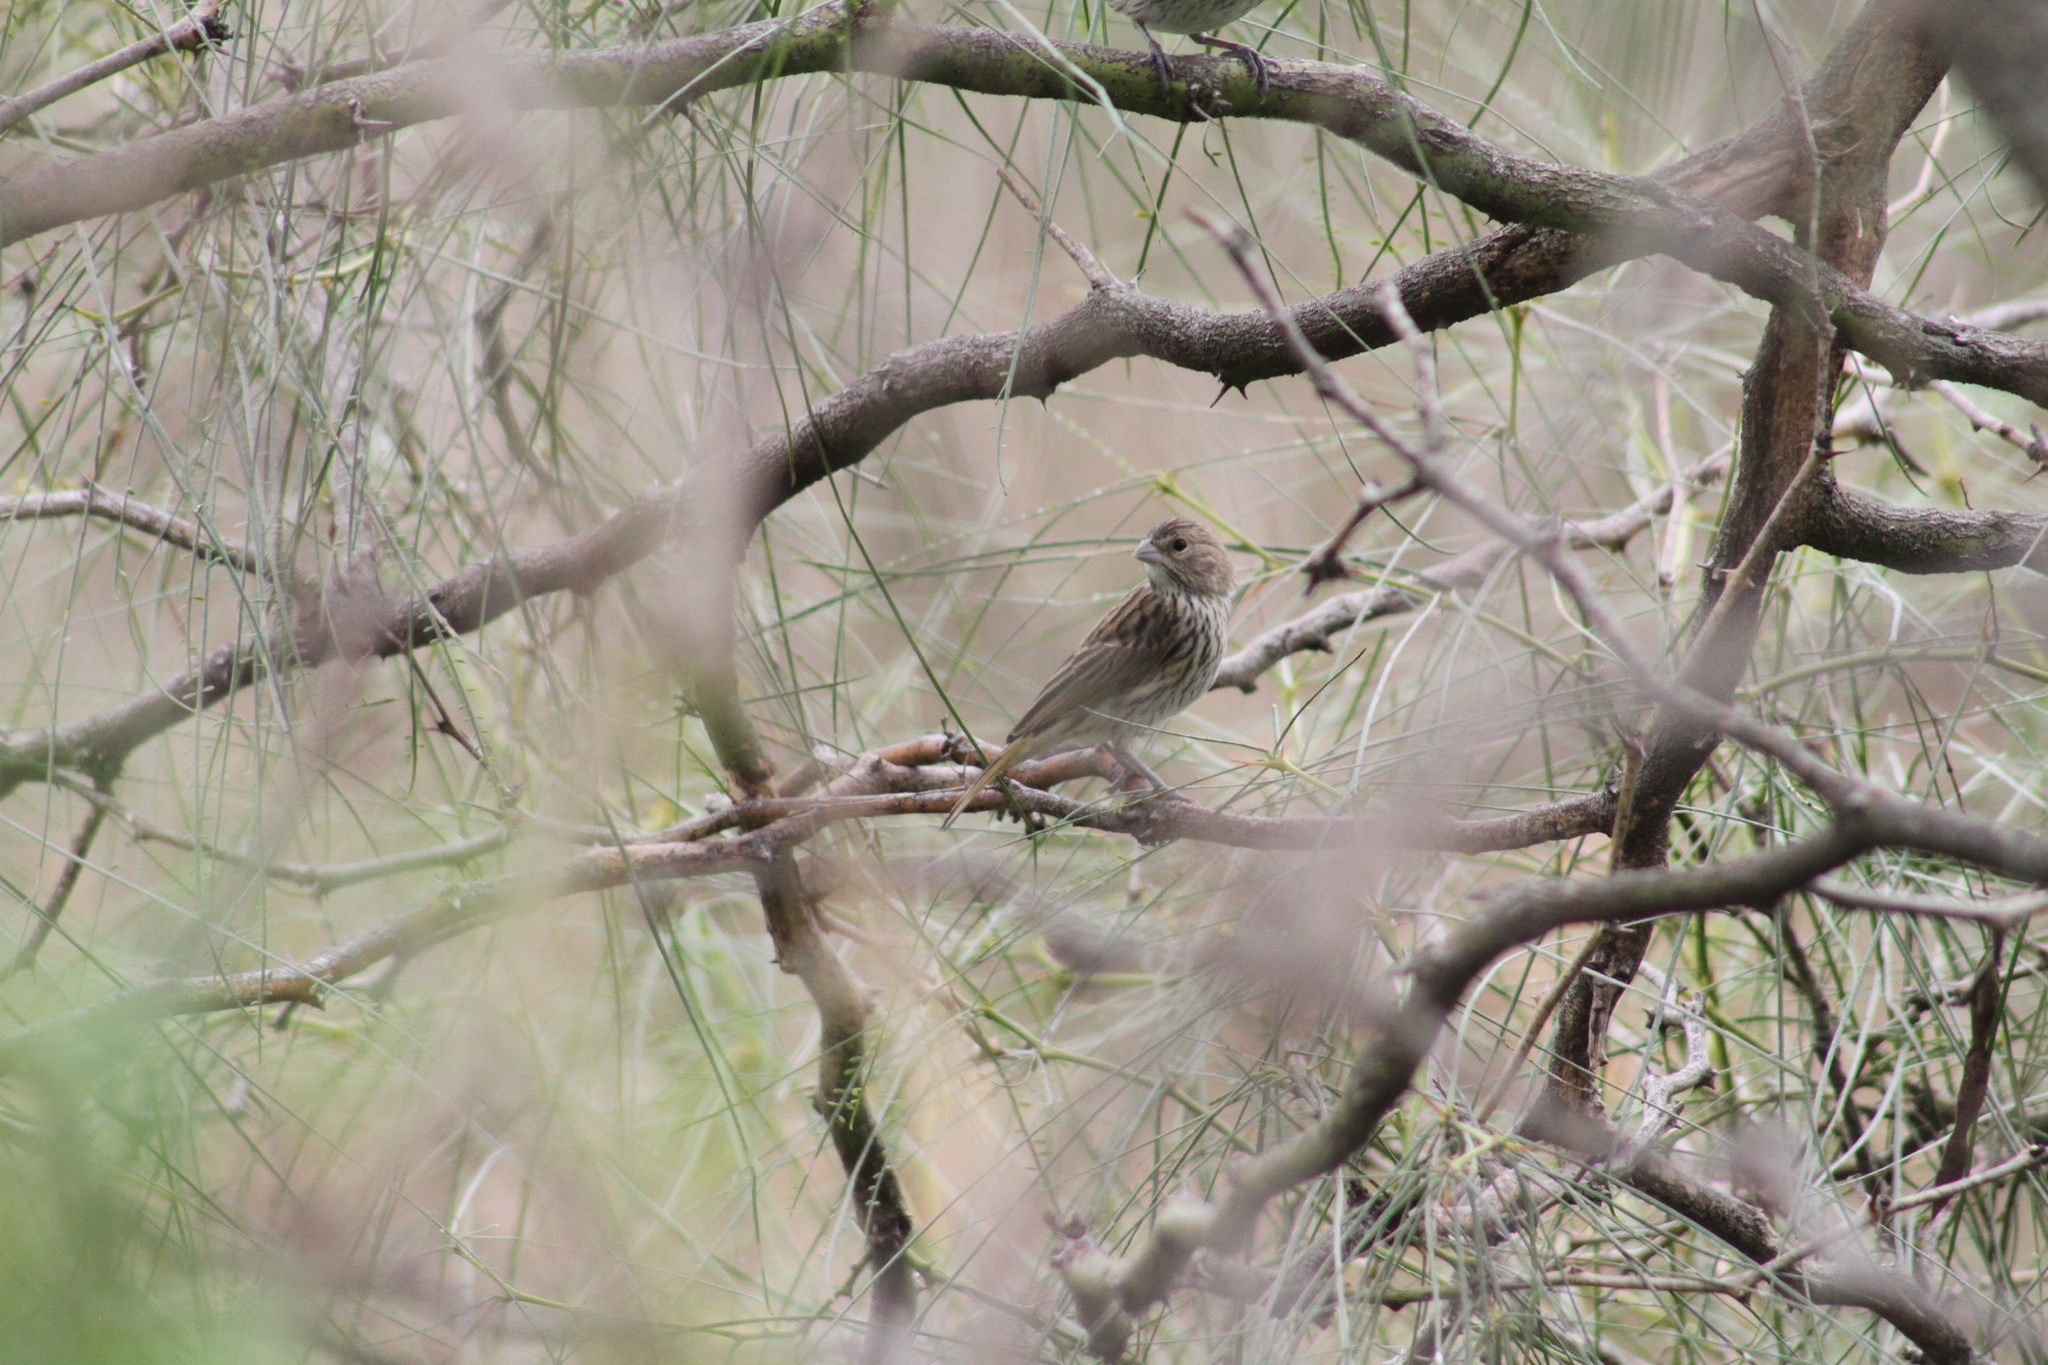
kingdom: Animalia
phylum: Chordata
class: Aves
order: Passeriformes
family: Thraupidae
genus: Sicalis
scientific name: Sicalis flaveola
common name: Saffron finch
